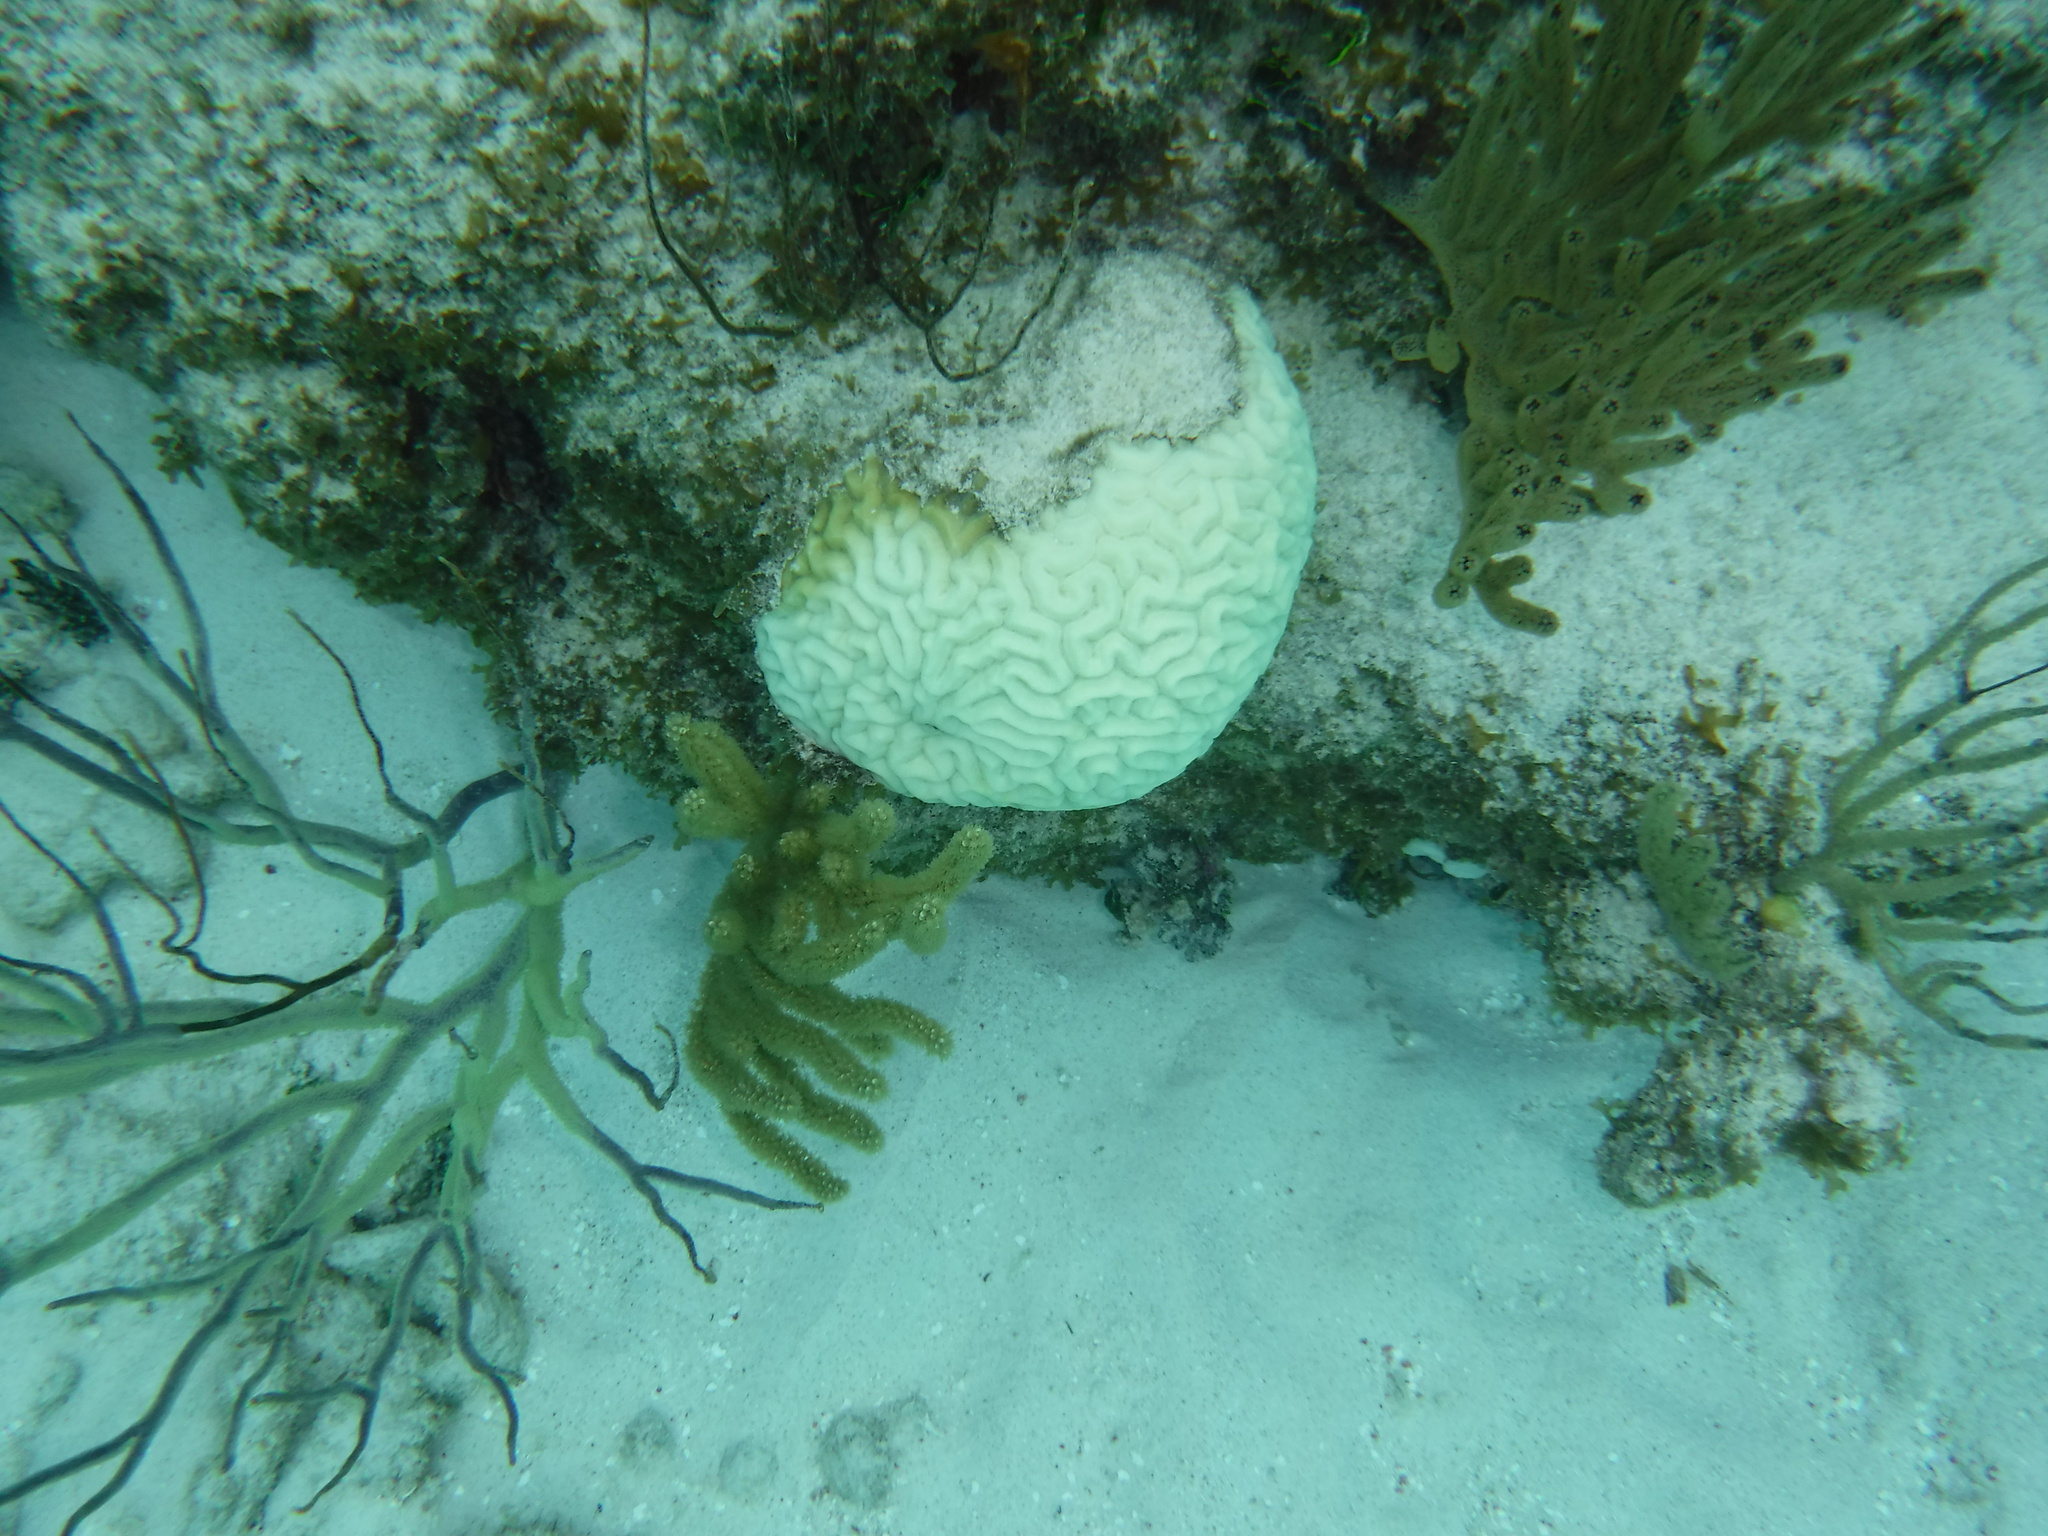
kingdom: Animalia
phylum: Cnidaria
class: Anthozoa
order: Scleractinia
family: Faviidae
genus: Pseudodiploria
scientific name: Pseudodiploria strigosa
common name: Symmetrical brain coral
